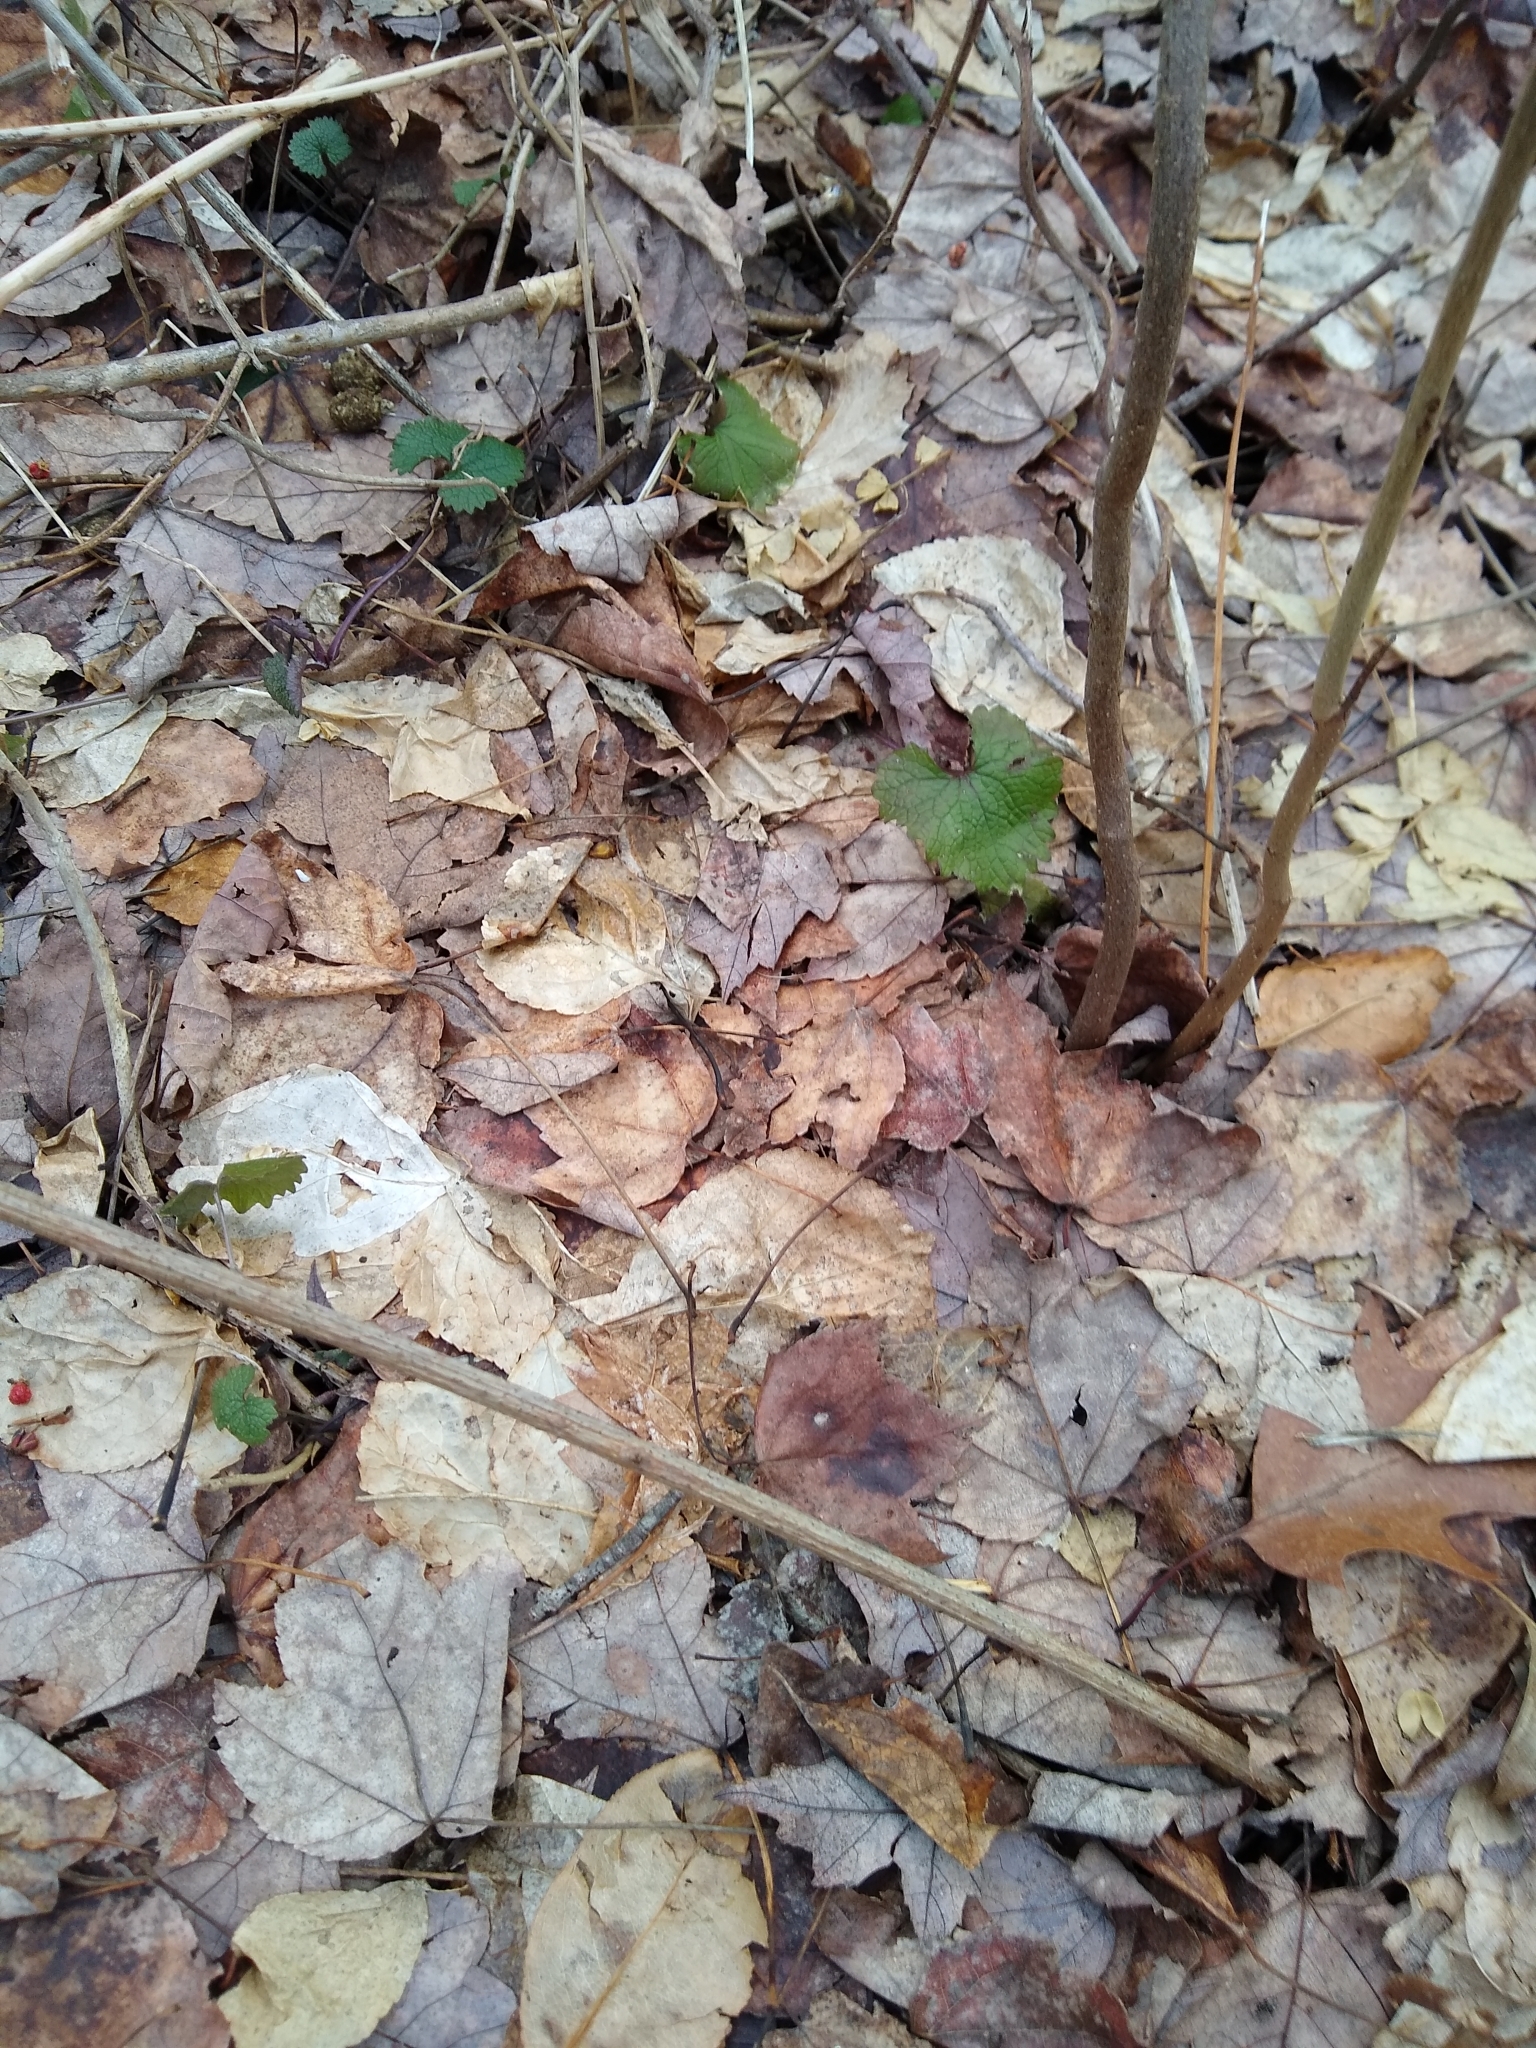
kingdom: Plantae
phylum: Tracheophyta
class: Magnoliopsida
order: Brassicales
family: Brassicaceae
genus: Alliaria
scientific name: Alliaria petiolata
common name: Garlic mustard
